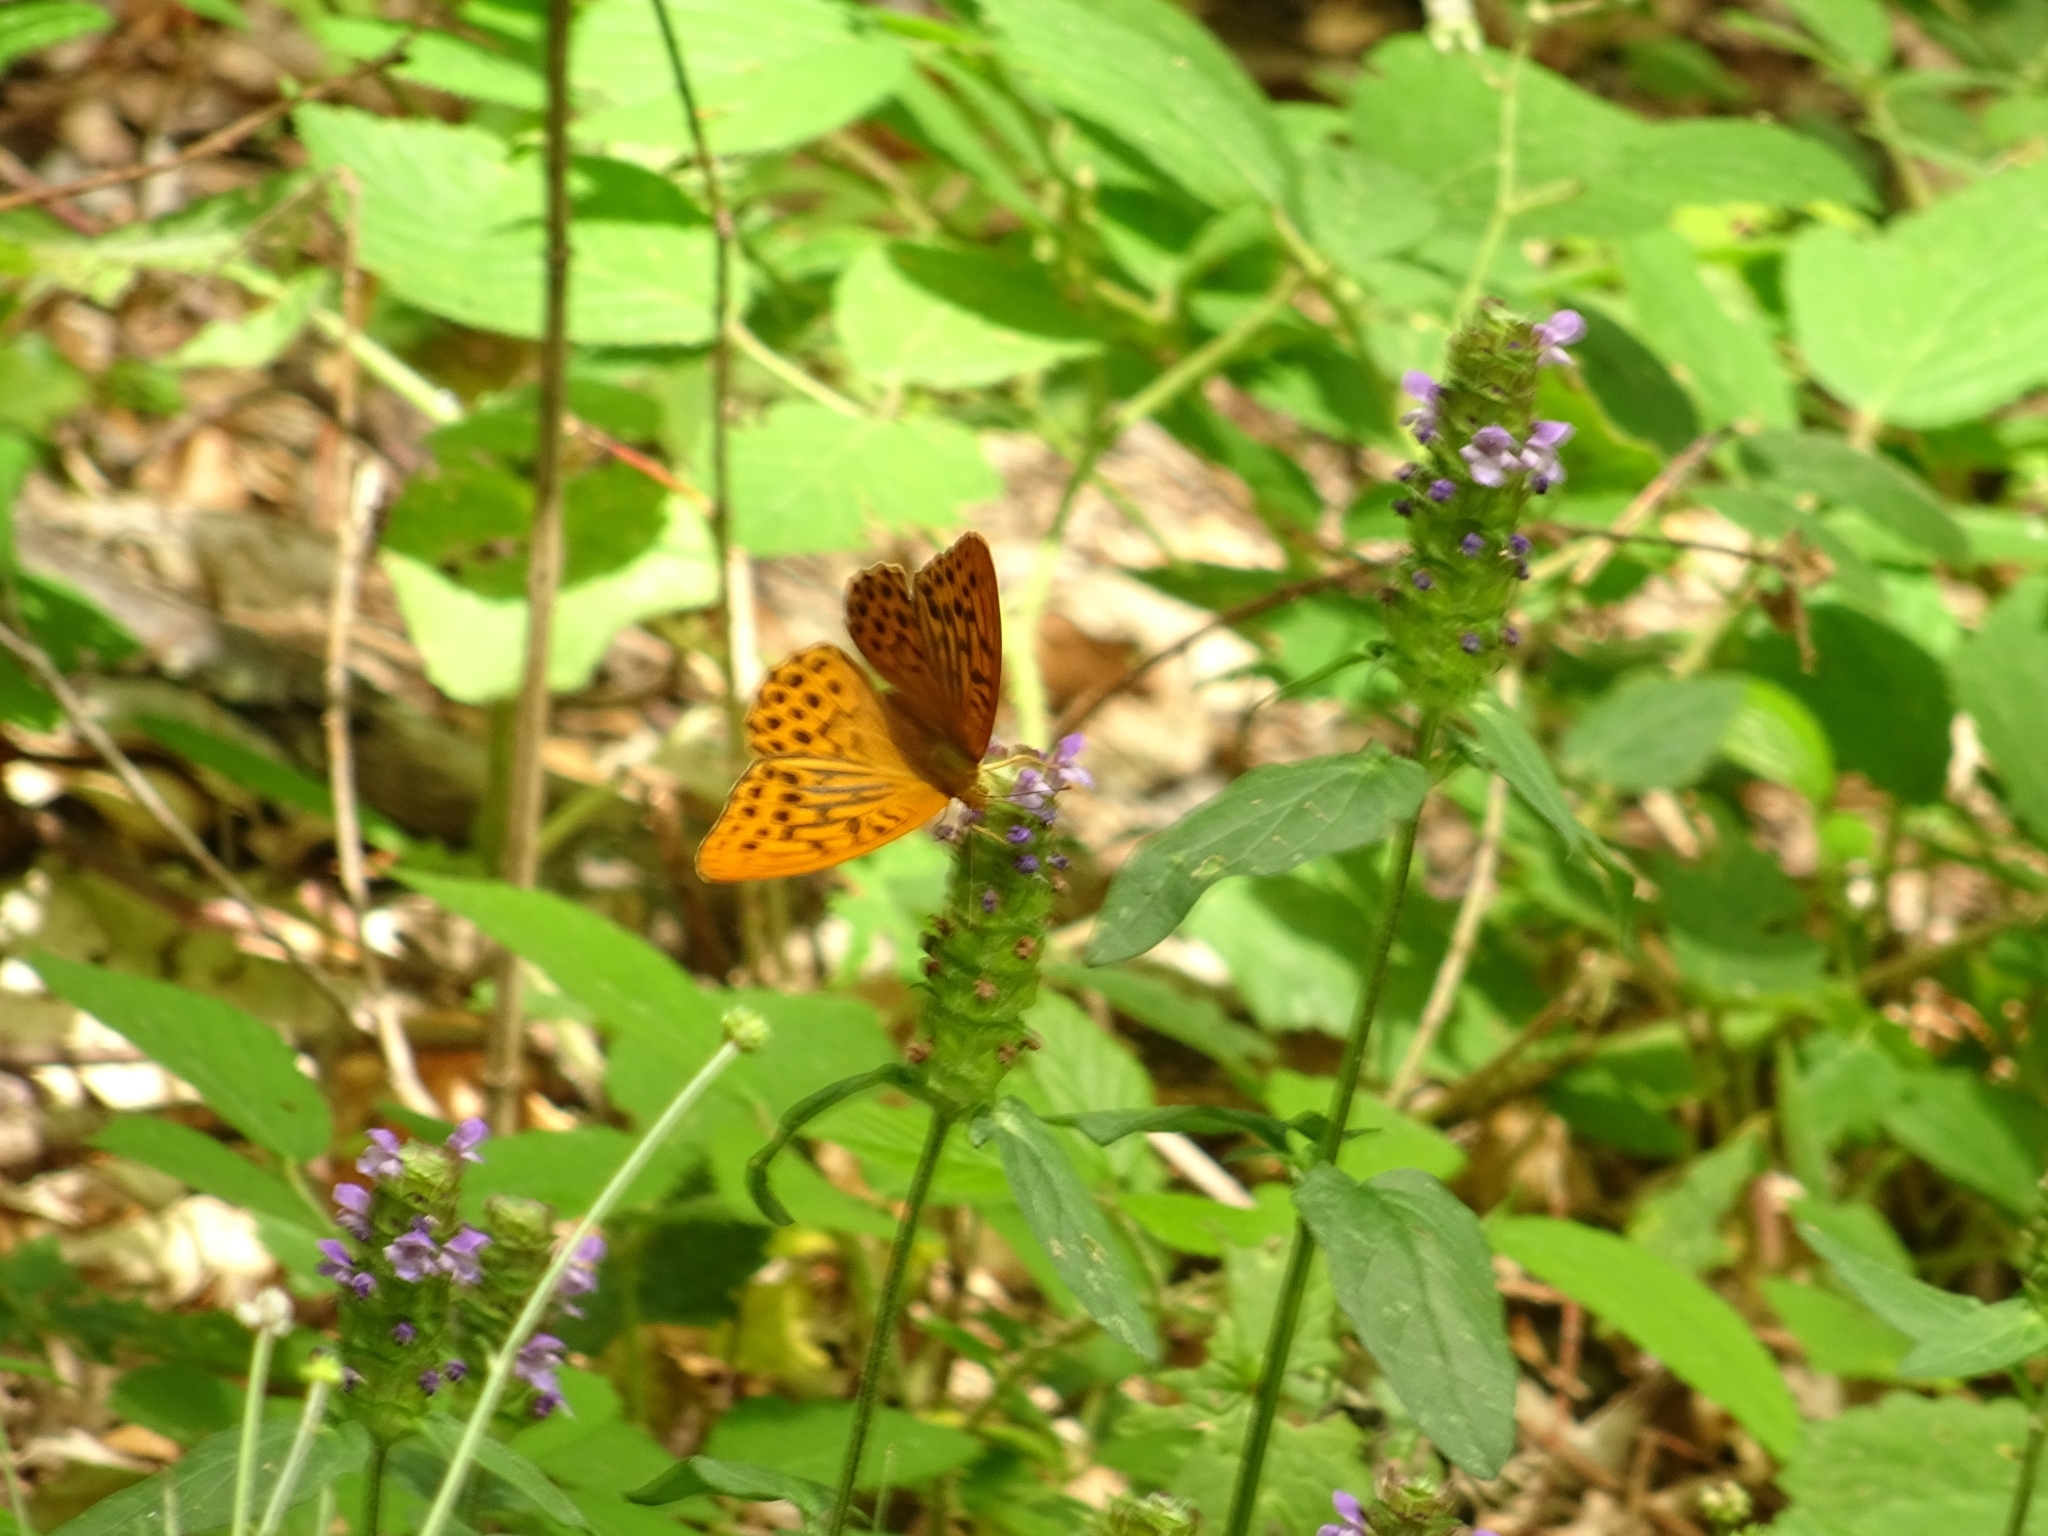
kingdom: Animalia
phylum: Arthropoda
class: Insecta
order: Lepidoptera
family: Nymphalidae
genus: Argynnis
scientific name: Argynnis paphia
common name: Silver-washed fritillary
